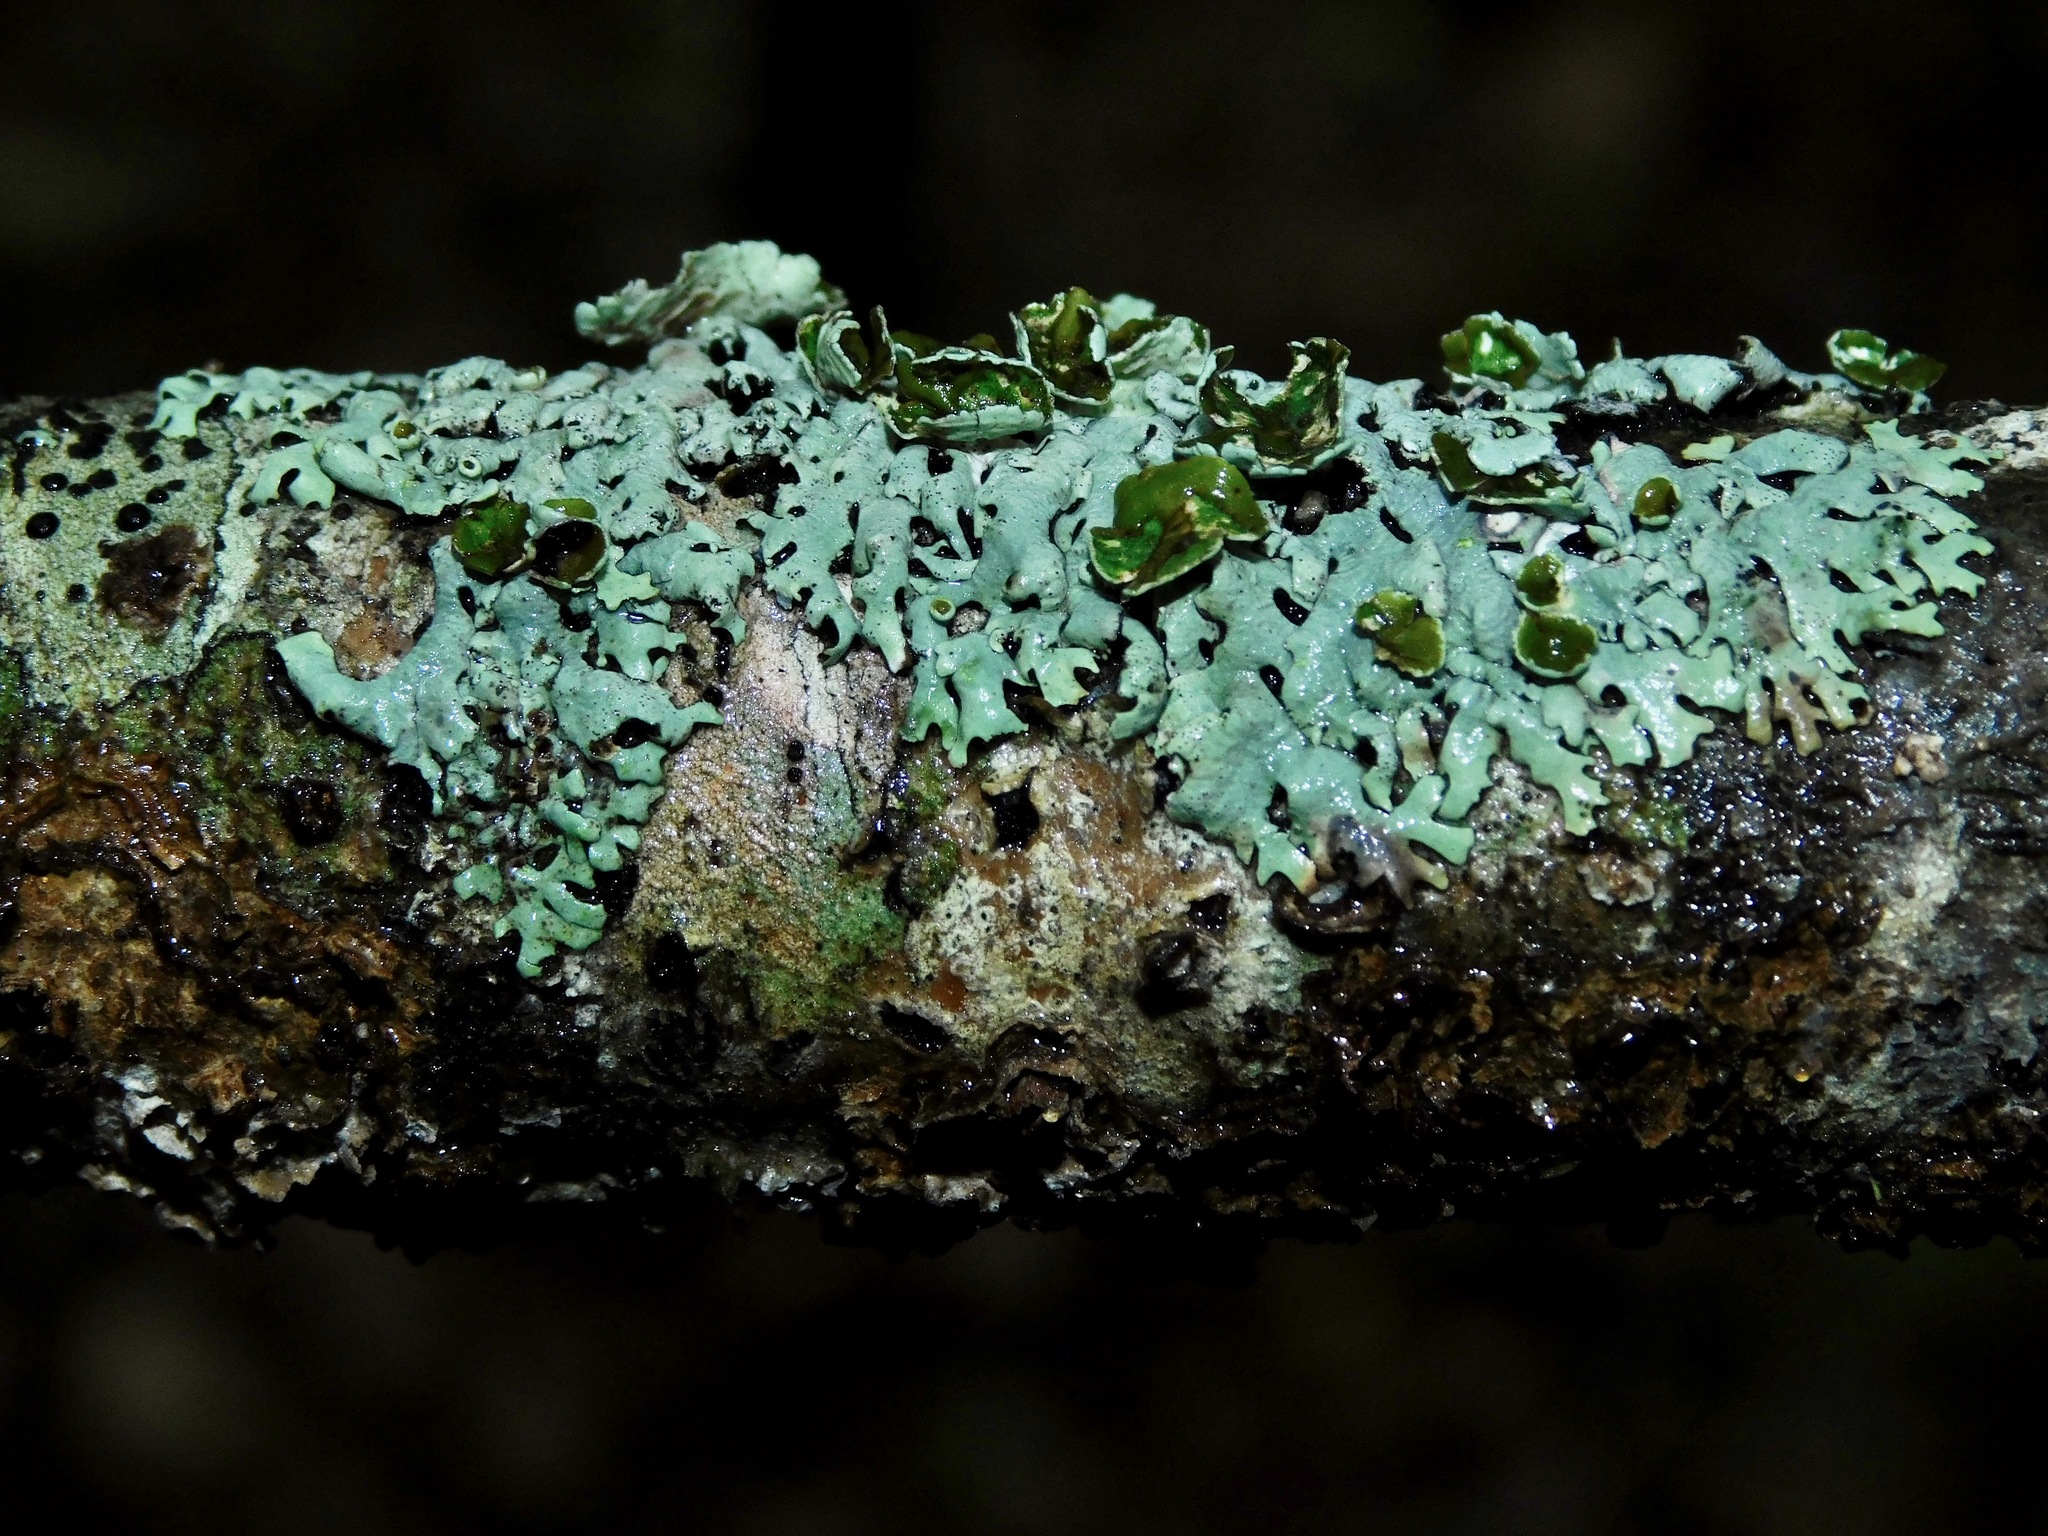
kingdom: Fungi
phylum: Ascomycota
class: Lecanoromycetes
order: Lecanorales
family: Parmeliaceae
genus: Hypotrachyna
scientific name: Hypotrachyna livida
